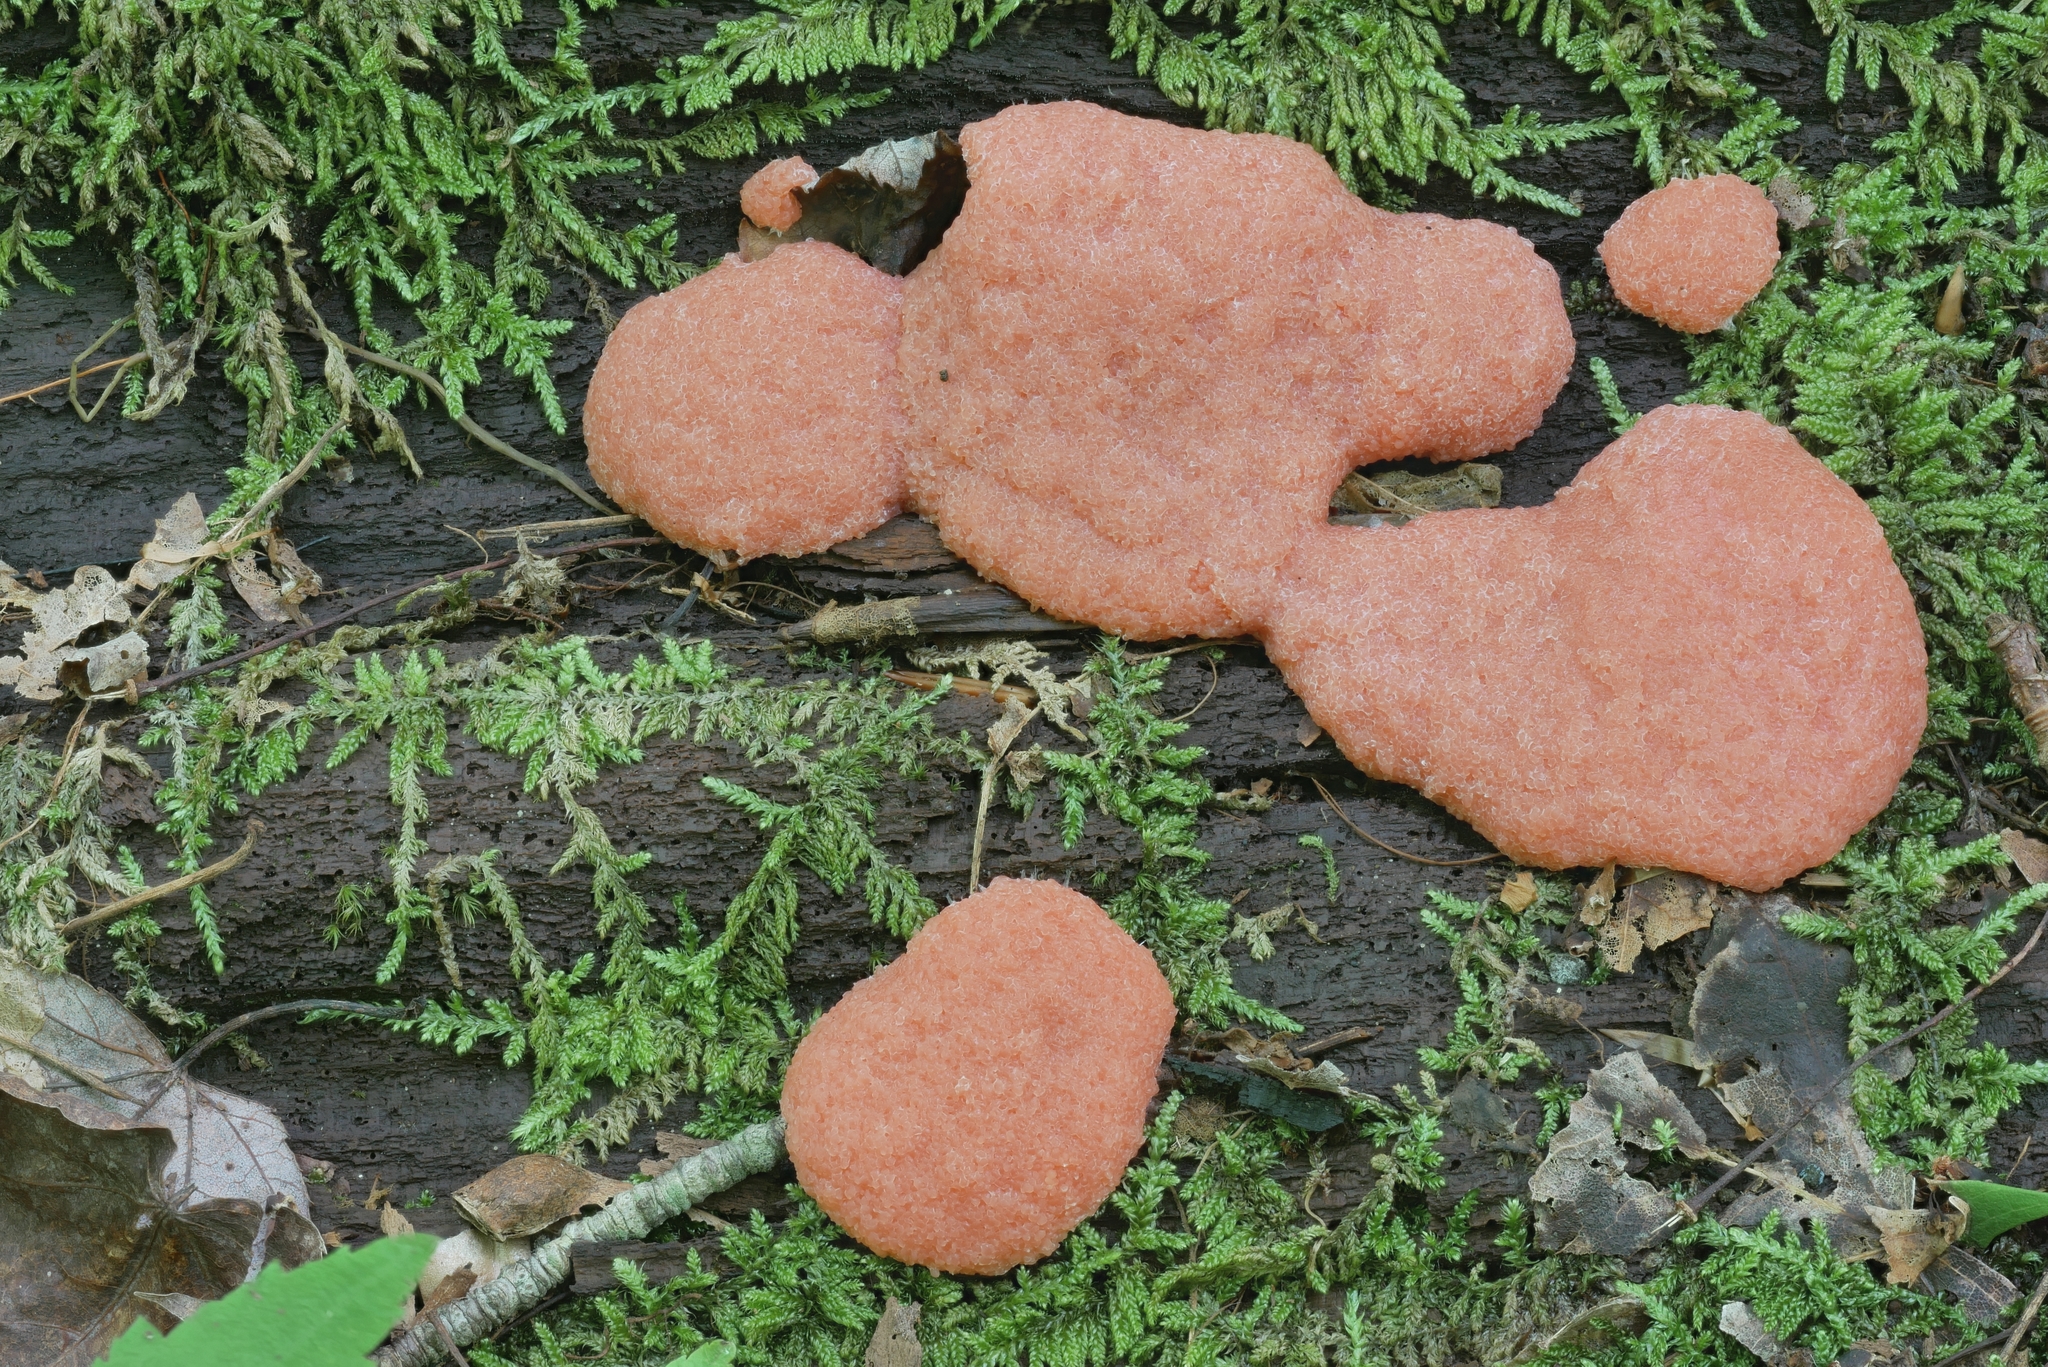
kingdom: Protozoa
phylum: Mycetozoa
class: Myxomycetes
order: Cribrariales
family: Tubiferaceae
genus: Tubifera
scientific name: Tubifera magna
